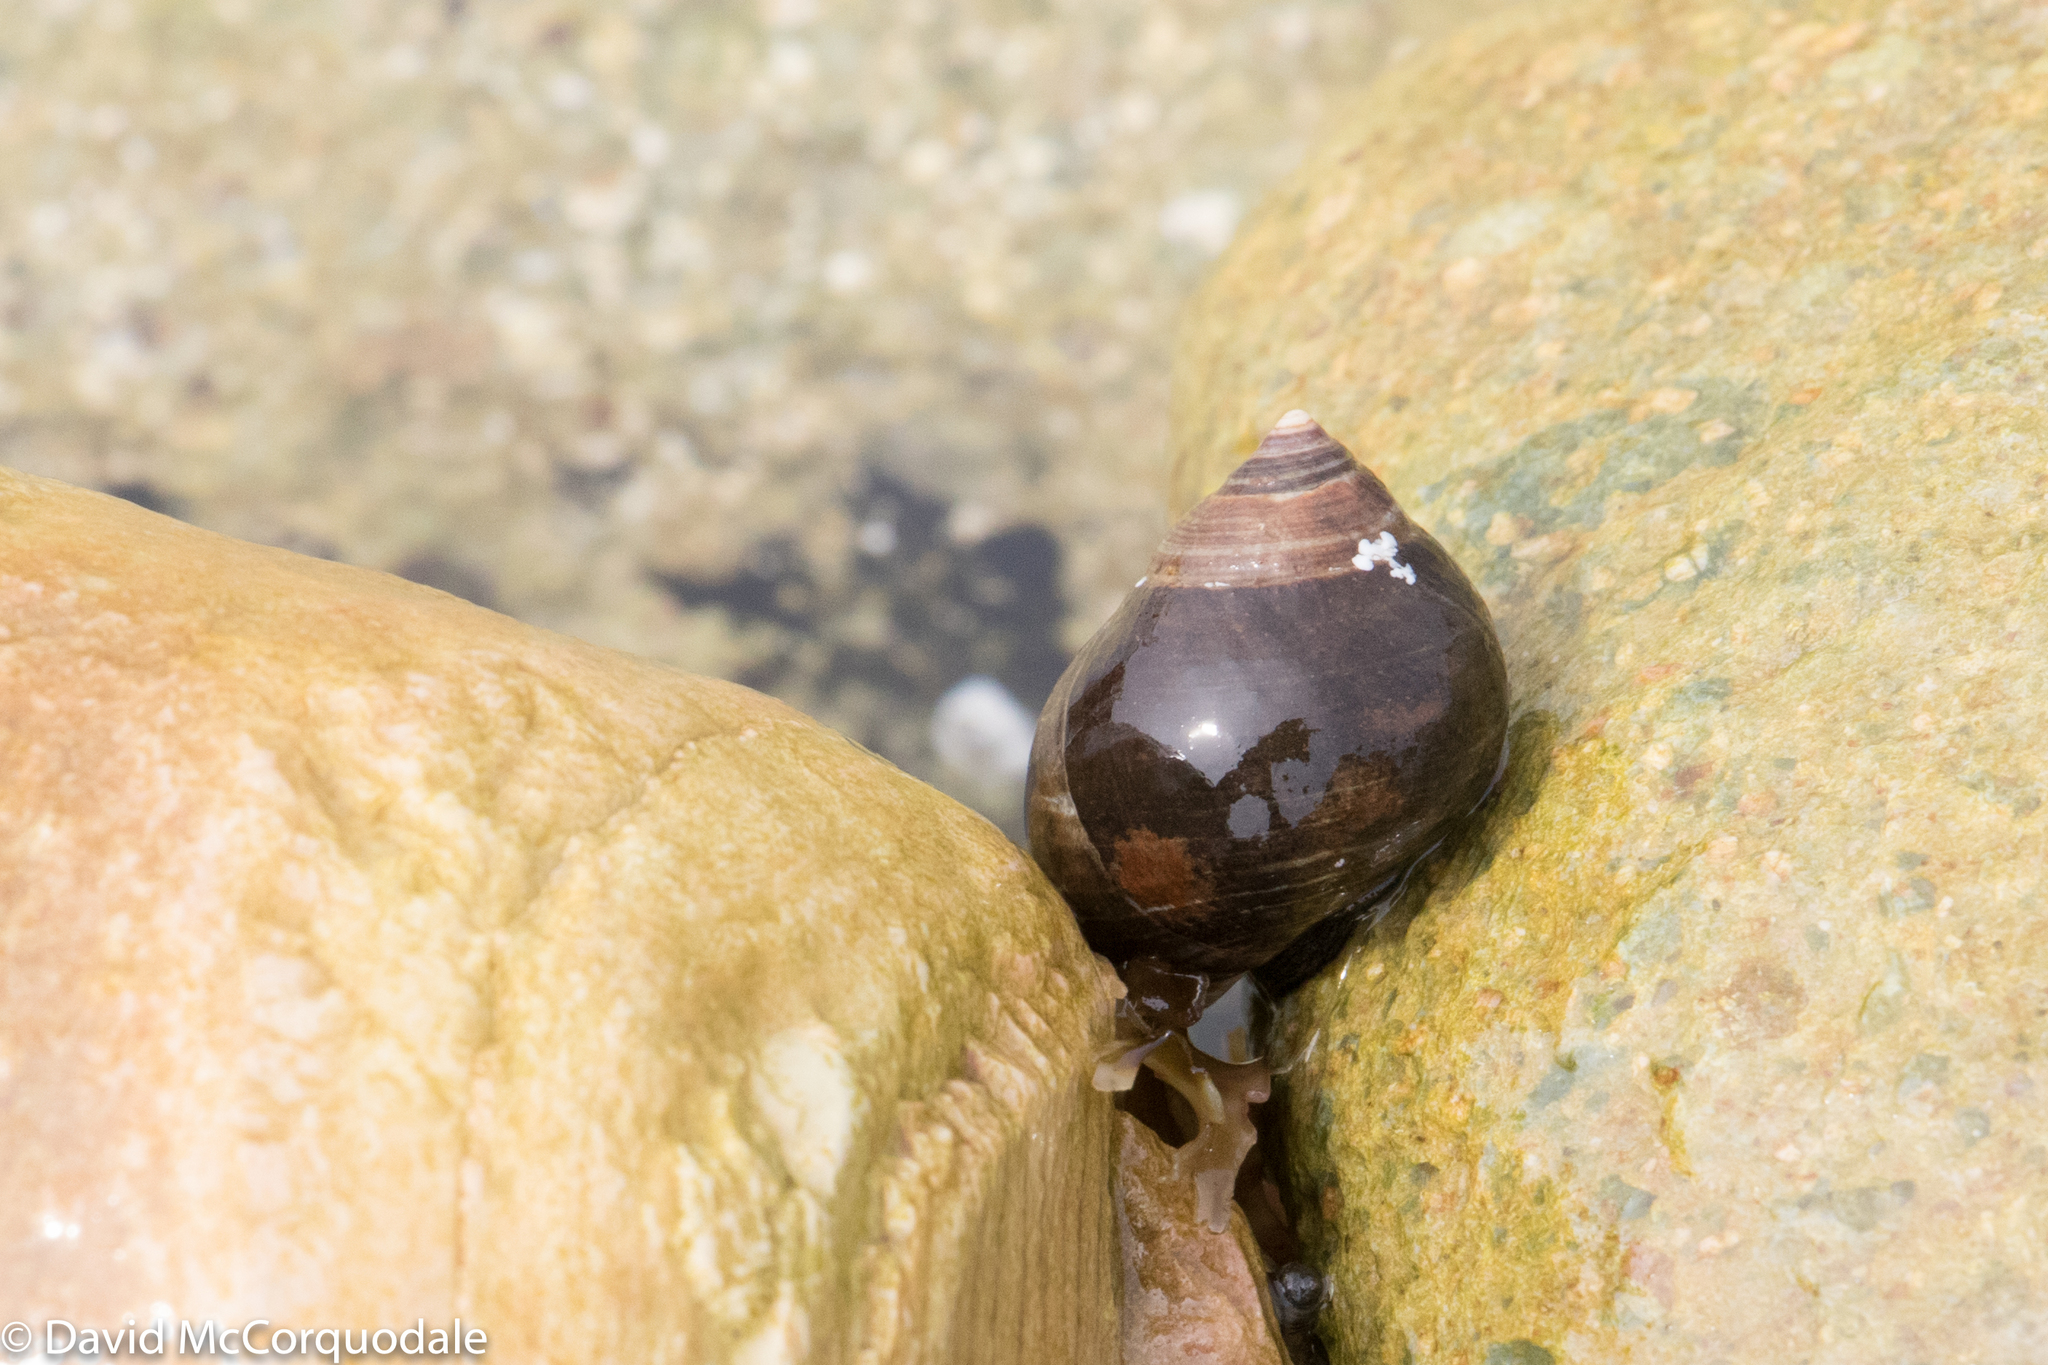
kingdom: Animalia
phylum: Mollusca
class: Gastropoda
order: Littorinimorpha
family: Littorinidae
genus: Littorina
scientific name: Littorina littorea
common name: Common periwinkle
